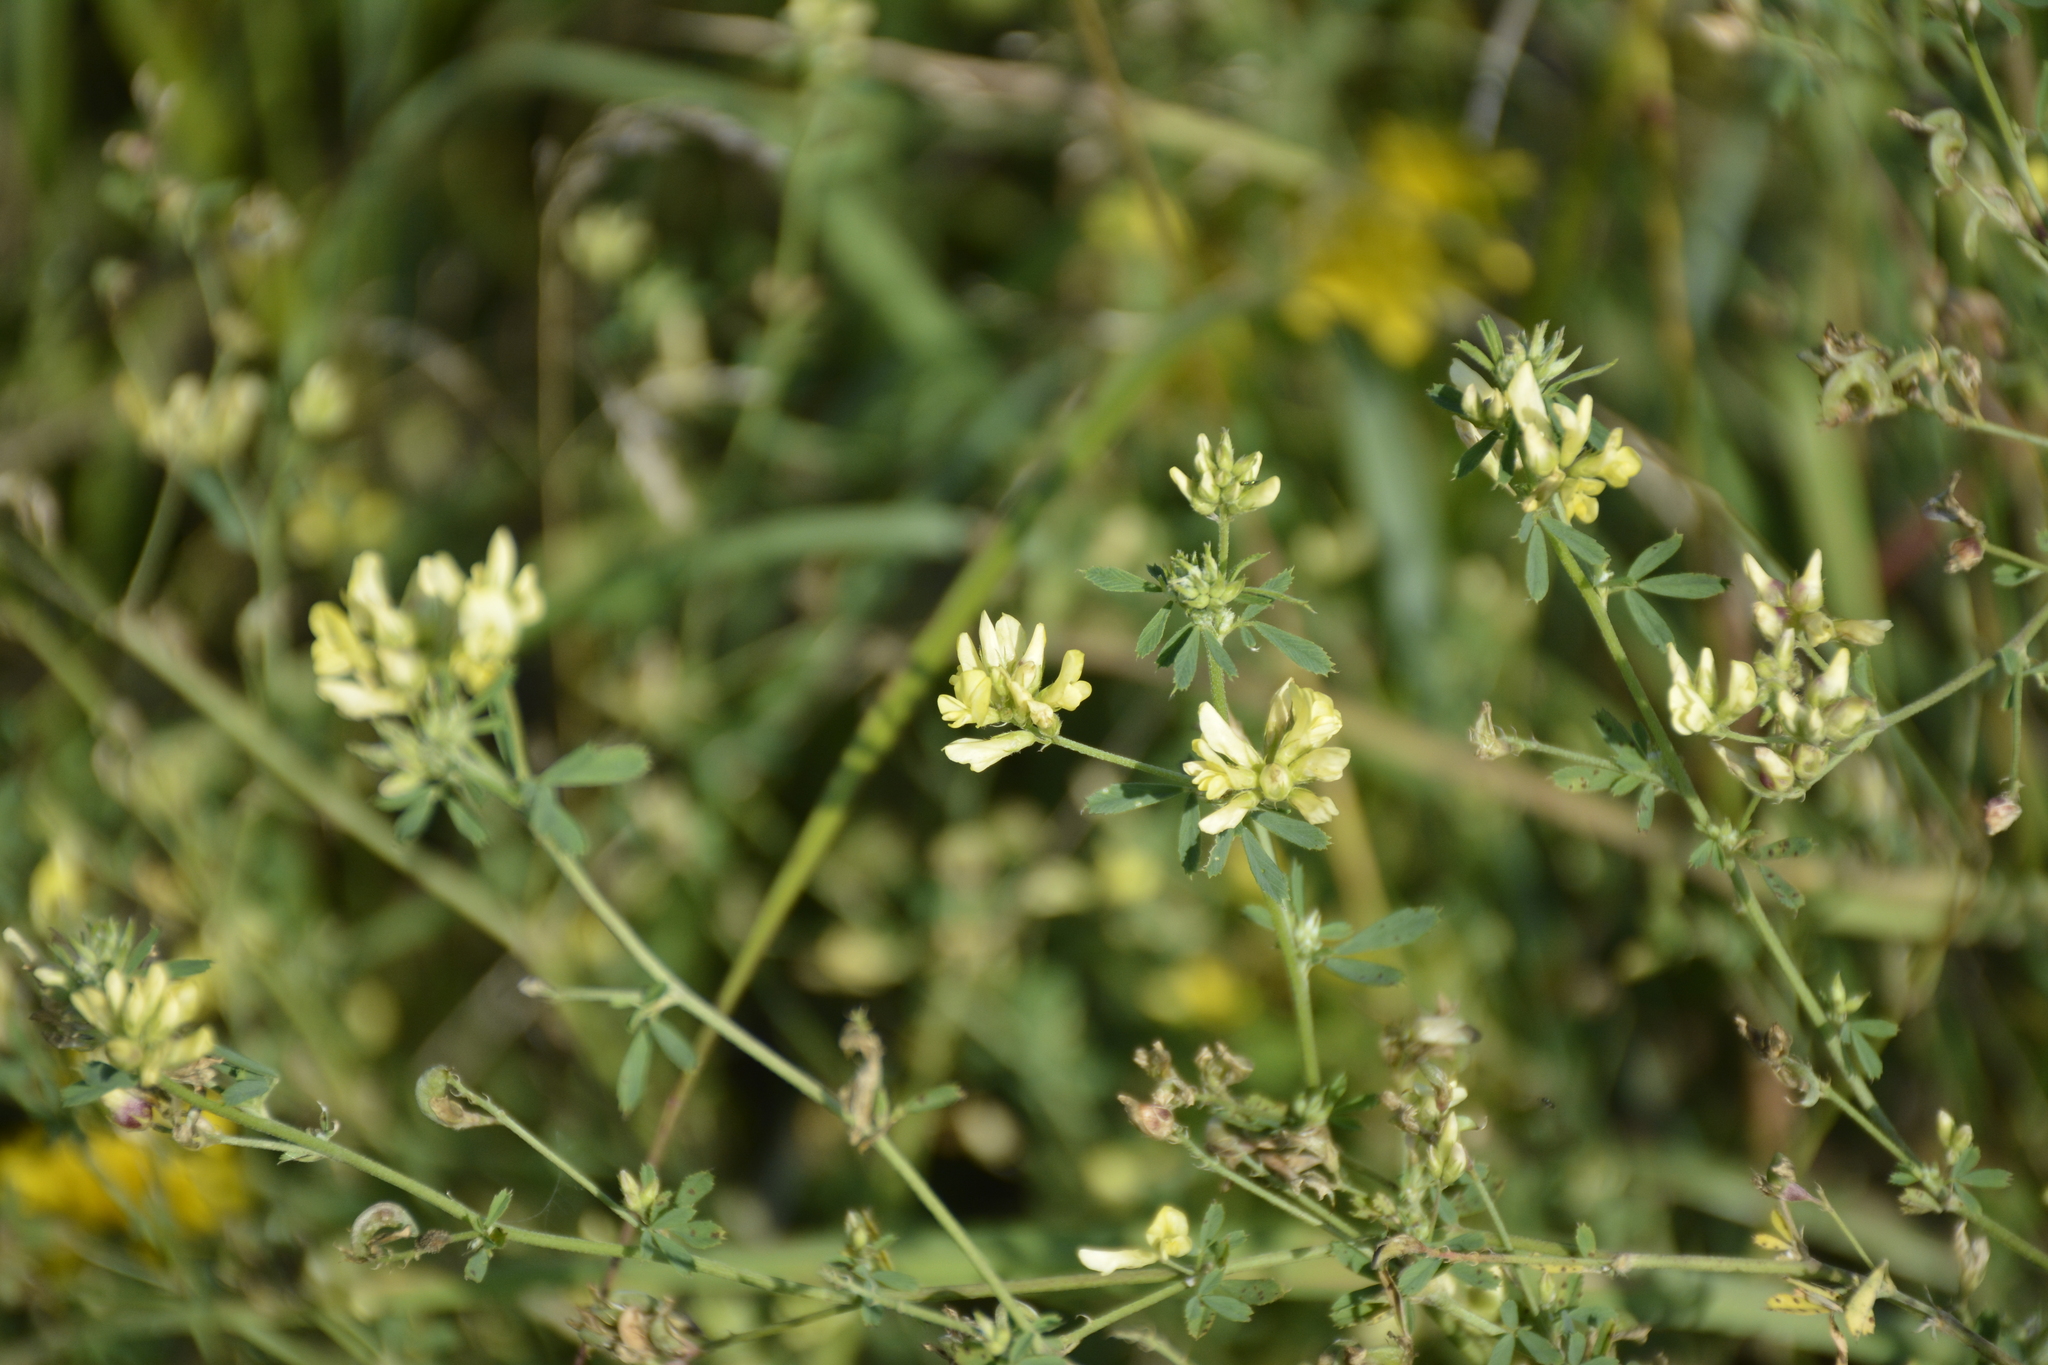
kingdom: Plantae
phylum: Tracheophyta
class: Magnoliopsida
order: Fabales
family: Fabaceae
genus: Medicago
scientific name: Medicago varia
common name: Sand lucerne
